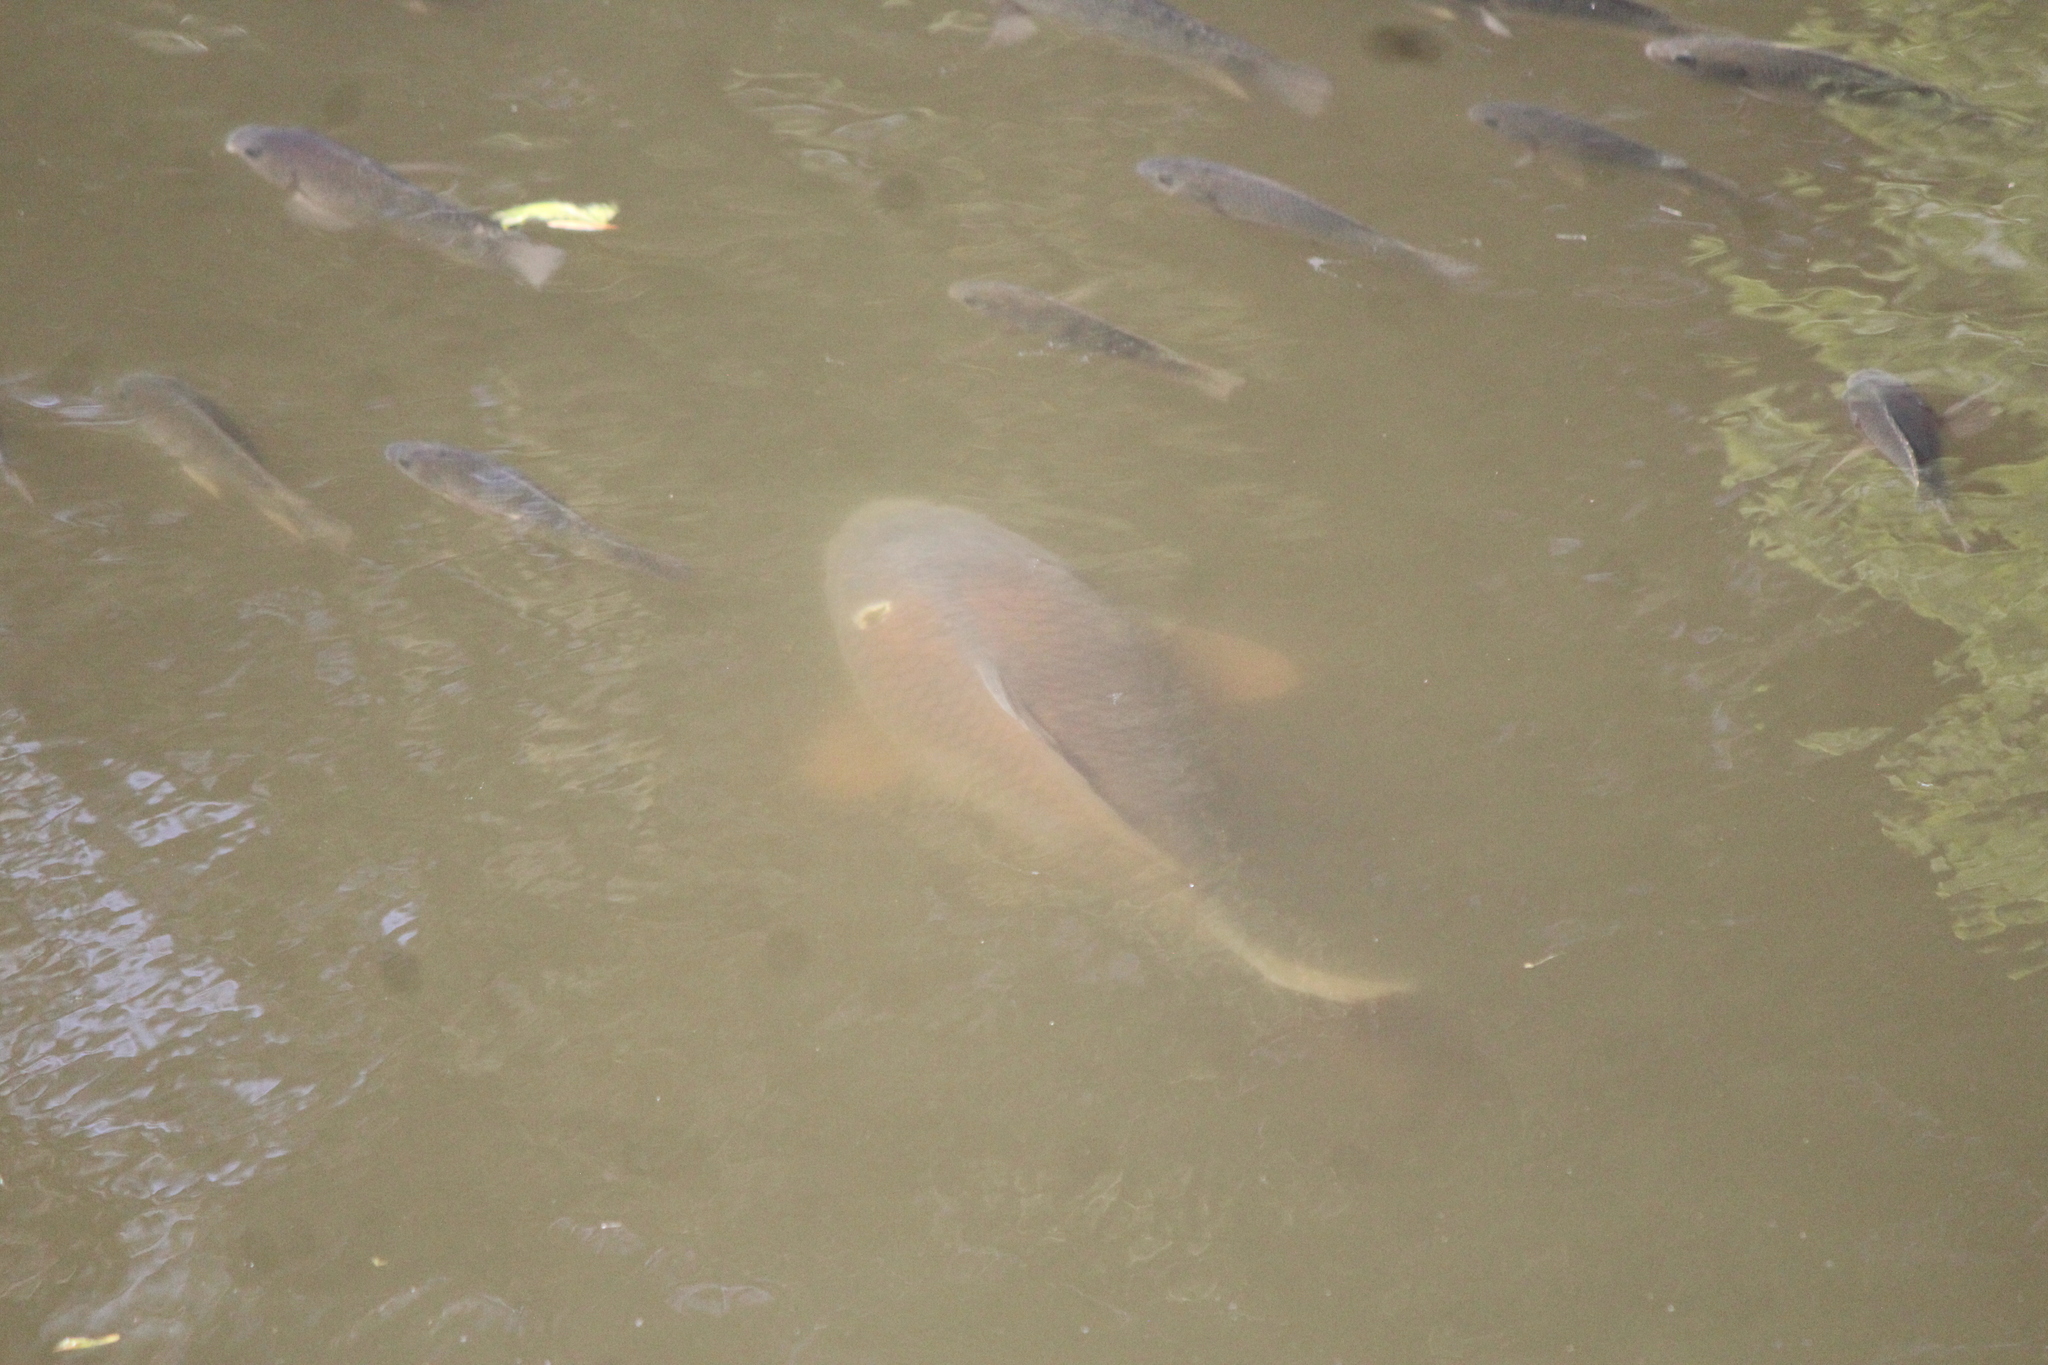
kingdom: Animalia
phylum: Chordata
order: Cypriniformes
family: Cyprinidae
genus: Cyprinus
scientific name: Cyprinus carpio
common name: Common carp
